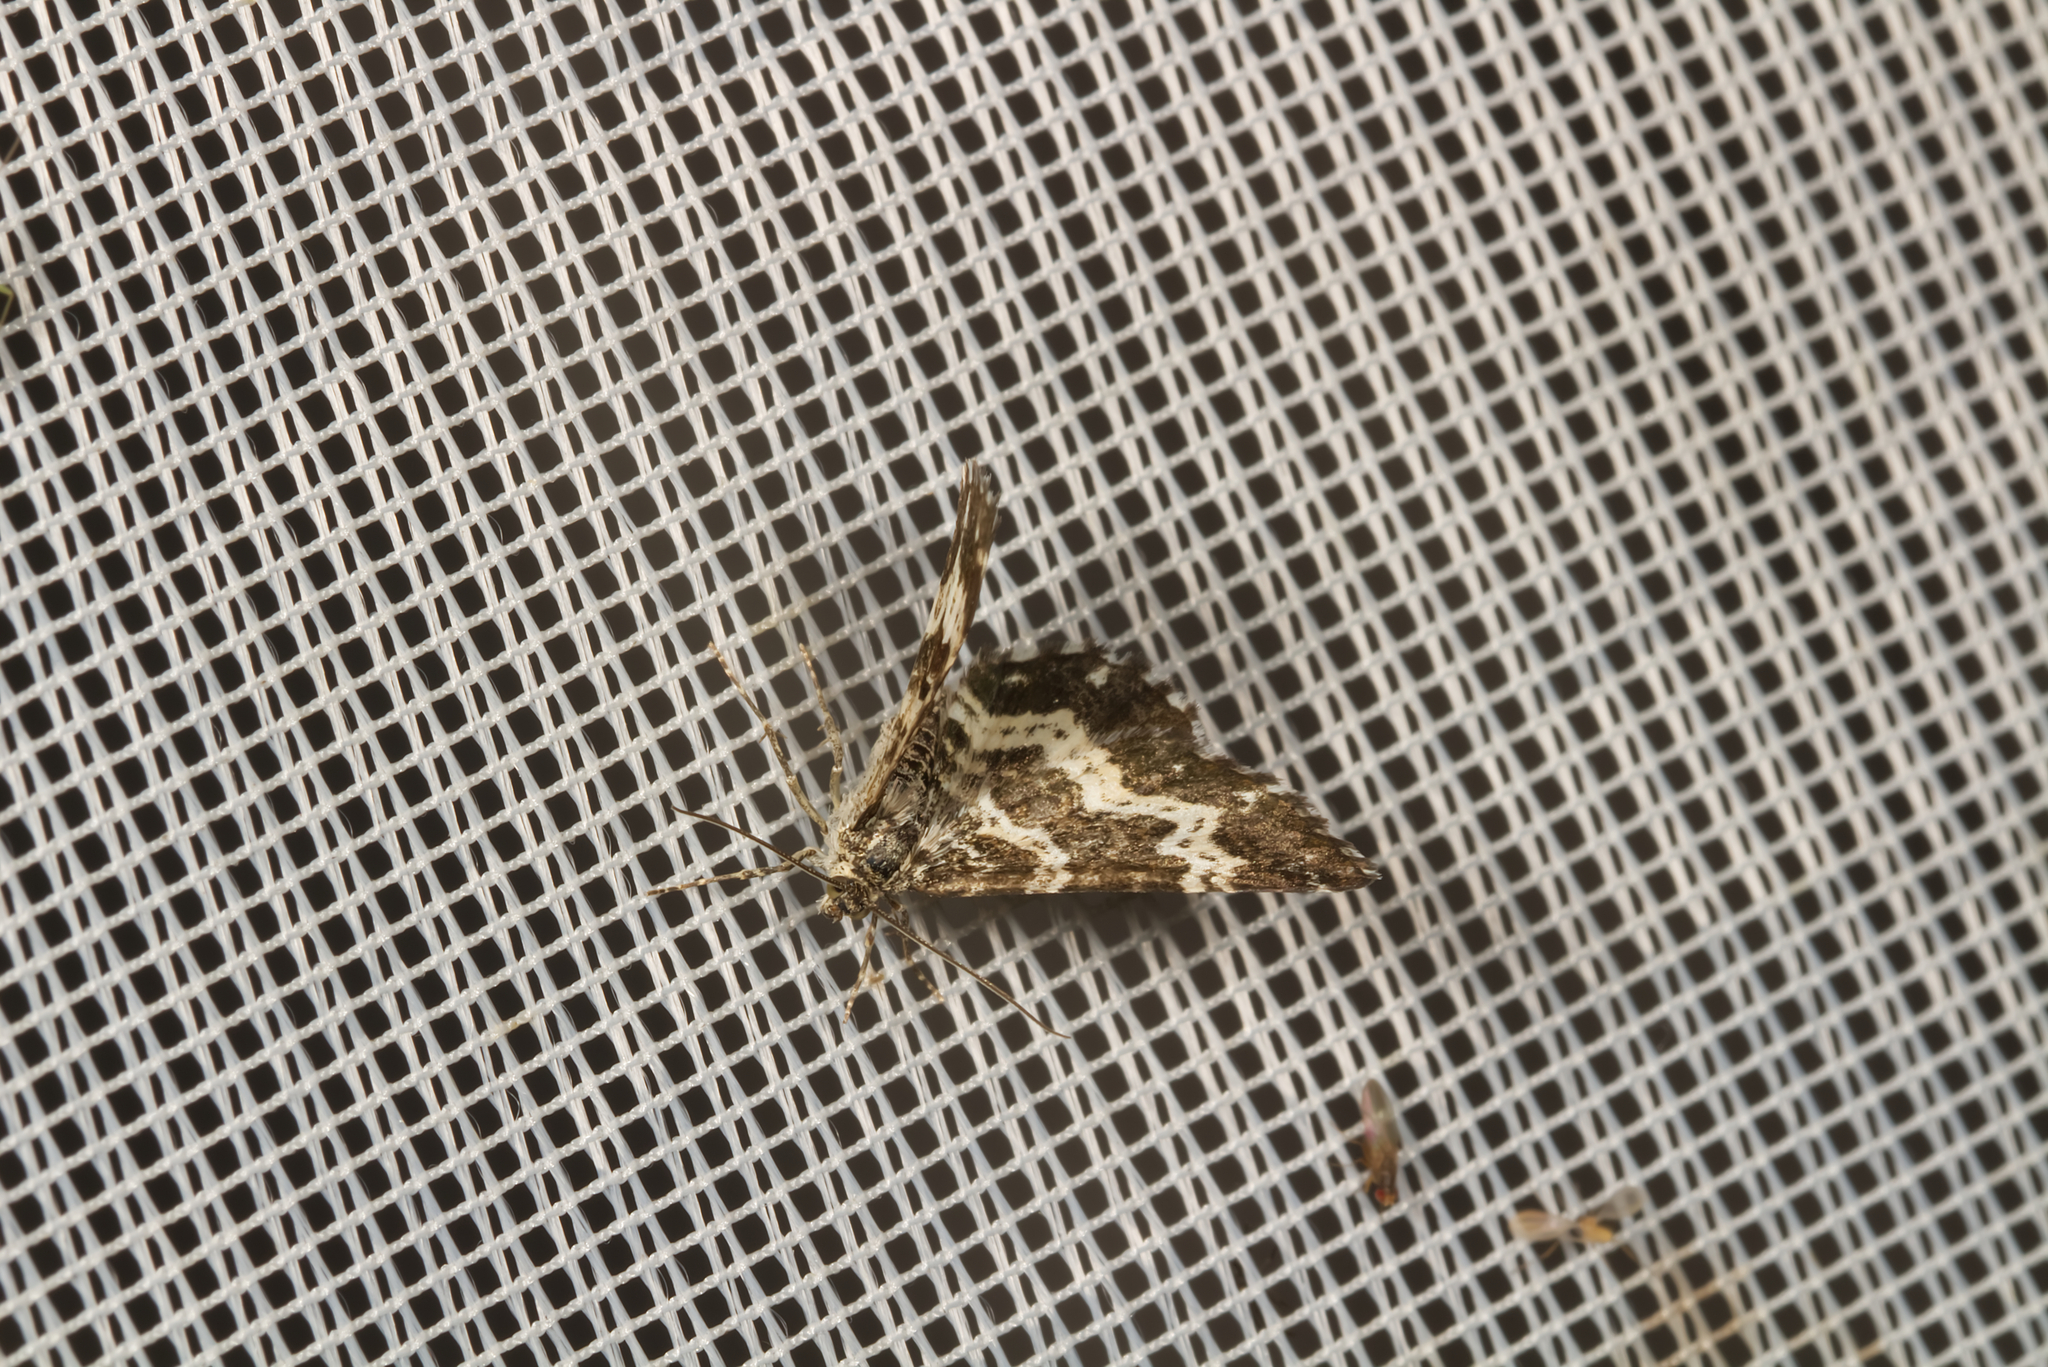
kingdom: Animalia
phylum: Arthropoda
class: Insecta
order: Lepidoptera
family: Geometridae
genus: Epirrhoe
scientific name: Epirrhoe tristata
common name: Small argent & sable
